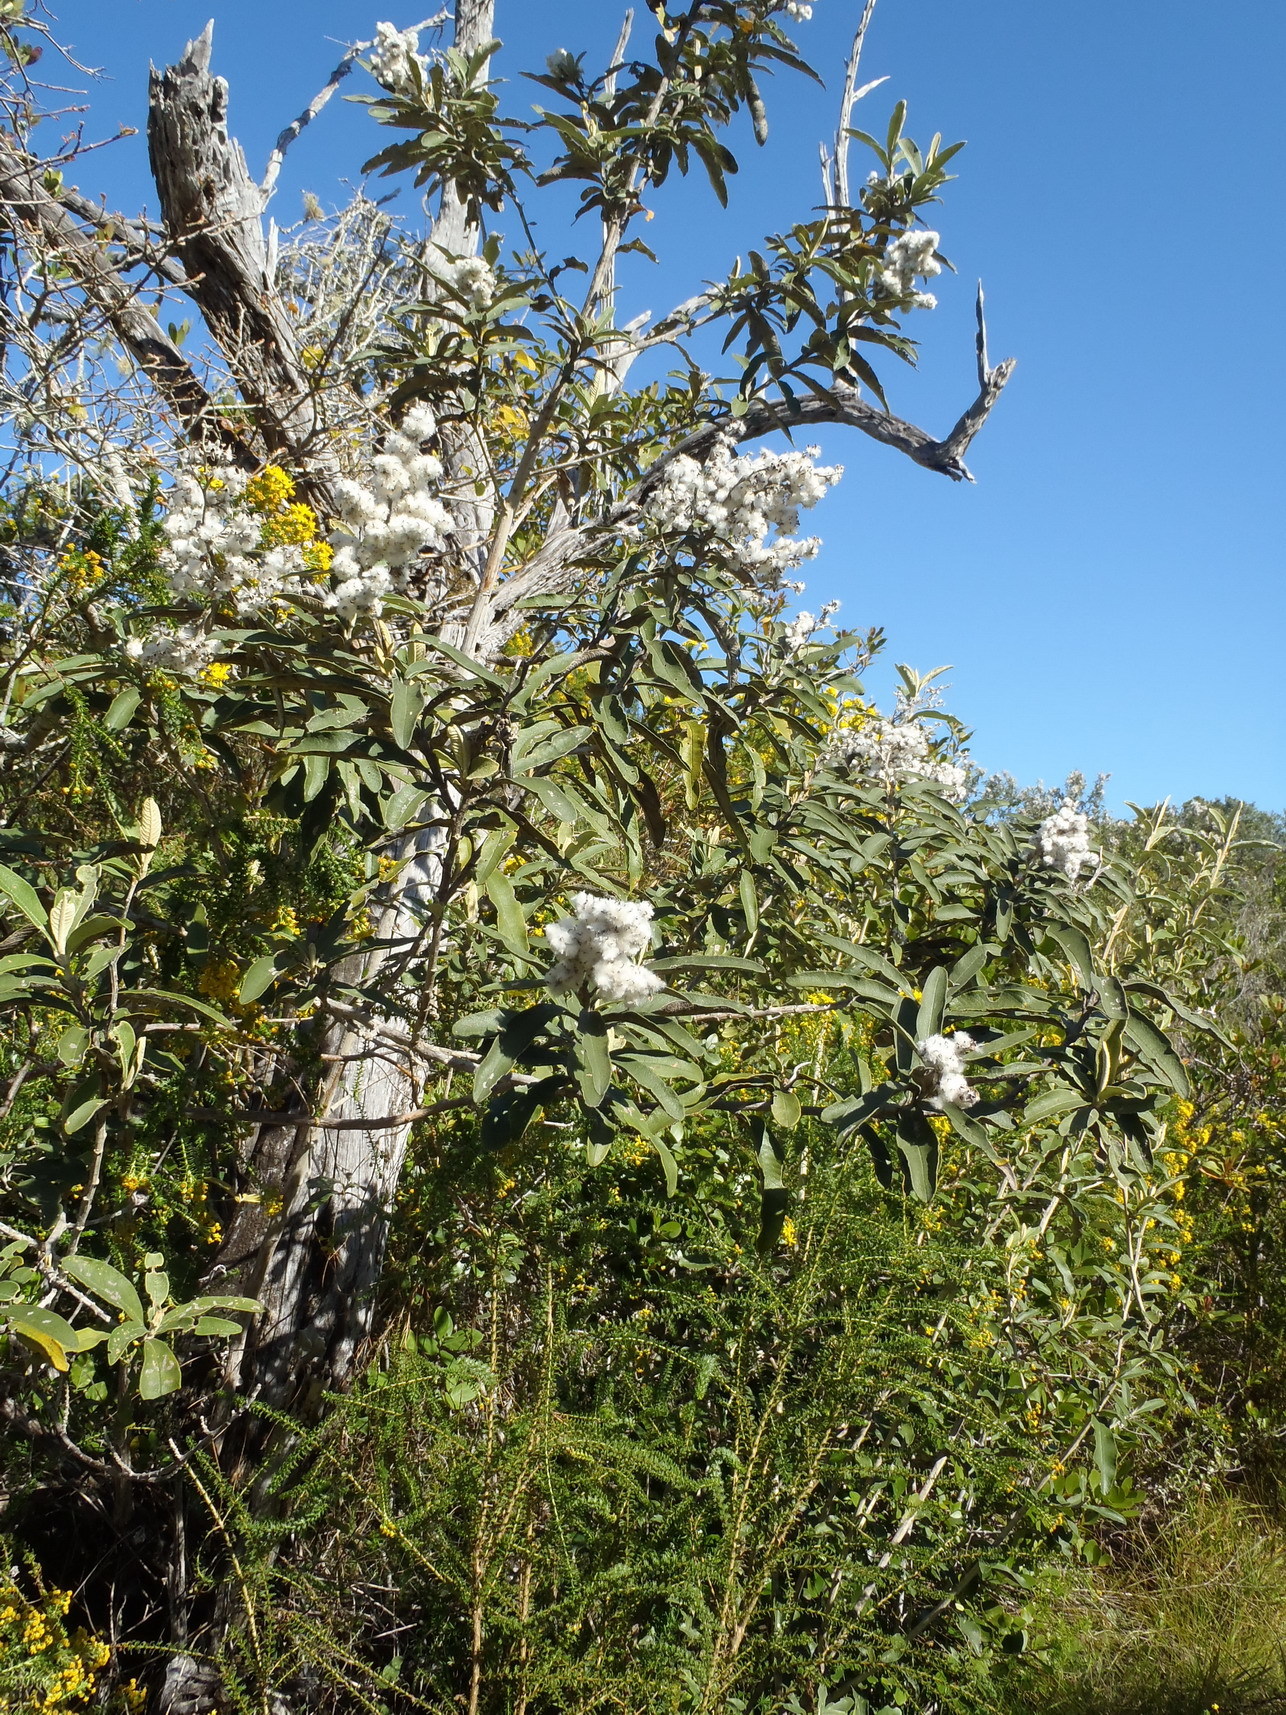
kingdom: Plantae
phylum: Tracheophyta
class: Magnoliopsida
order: Asterales
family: Asteraceae
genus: Tarchonanthus
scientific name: Tarchonanthus littoralis
